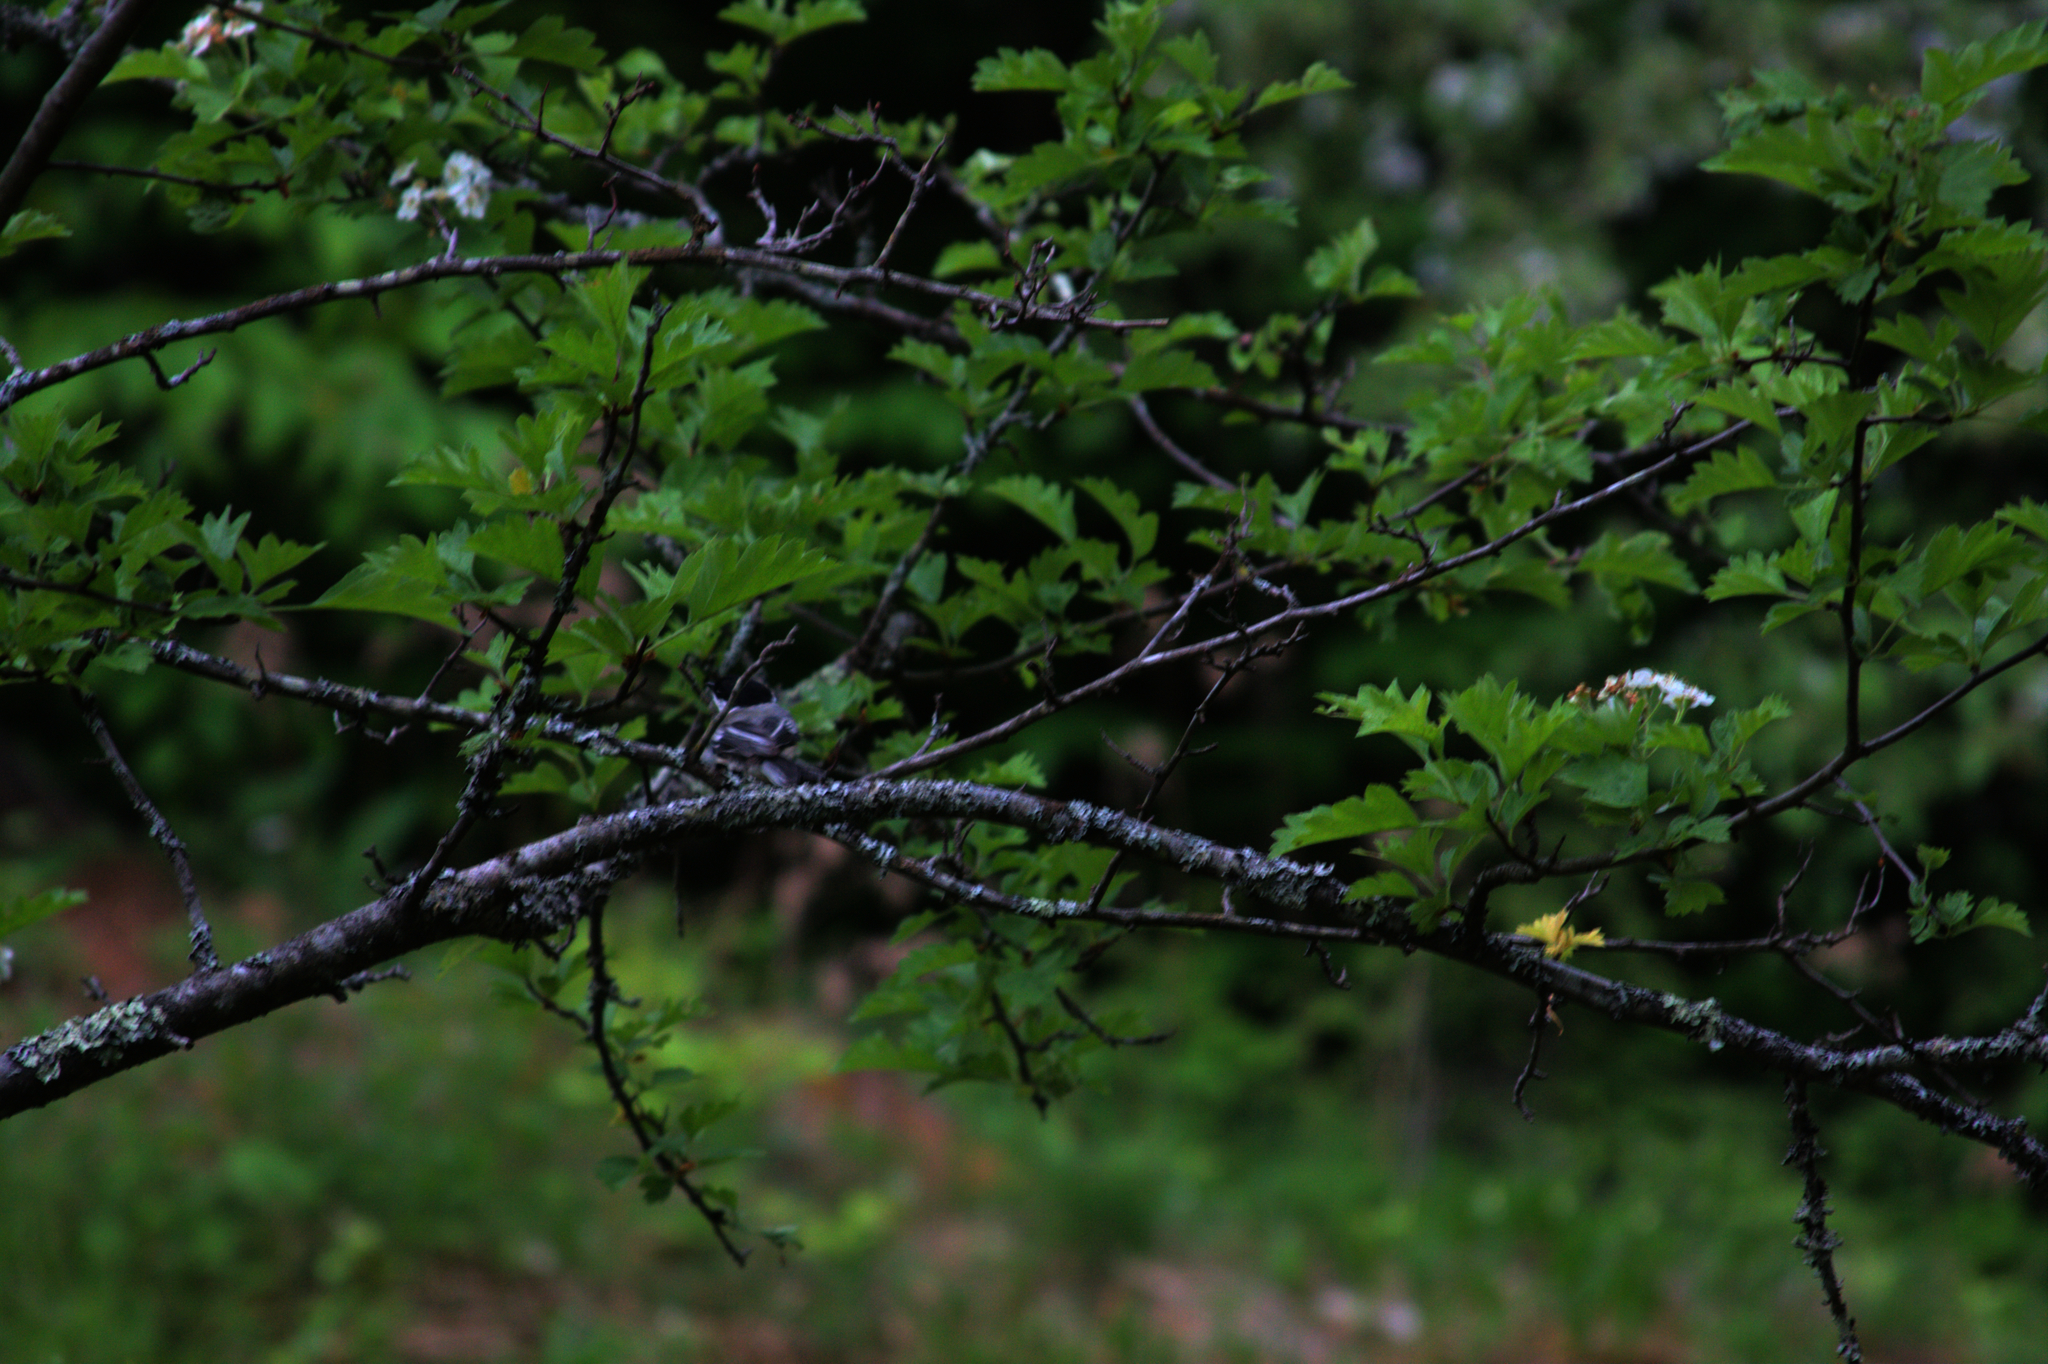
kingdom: Animalia
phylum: Chordata
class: Aves
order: Passeriformes
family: Paridae
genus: Poecile
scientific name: Poecile atricapillus
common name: Black-capped chickadee
